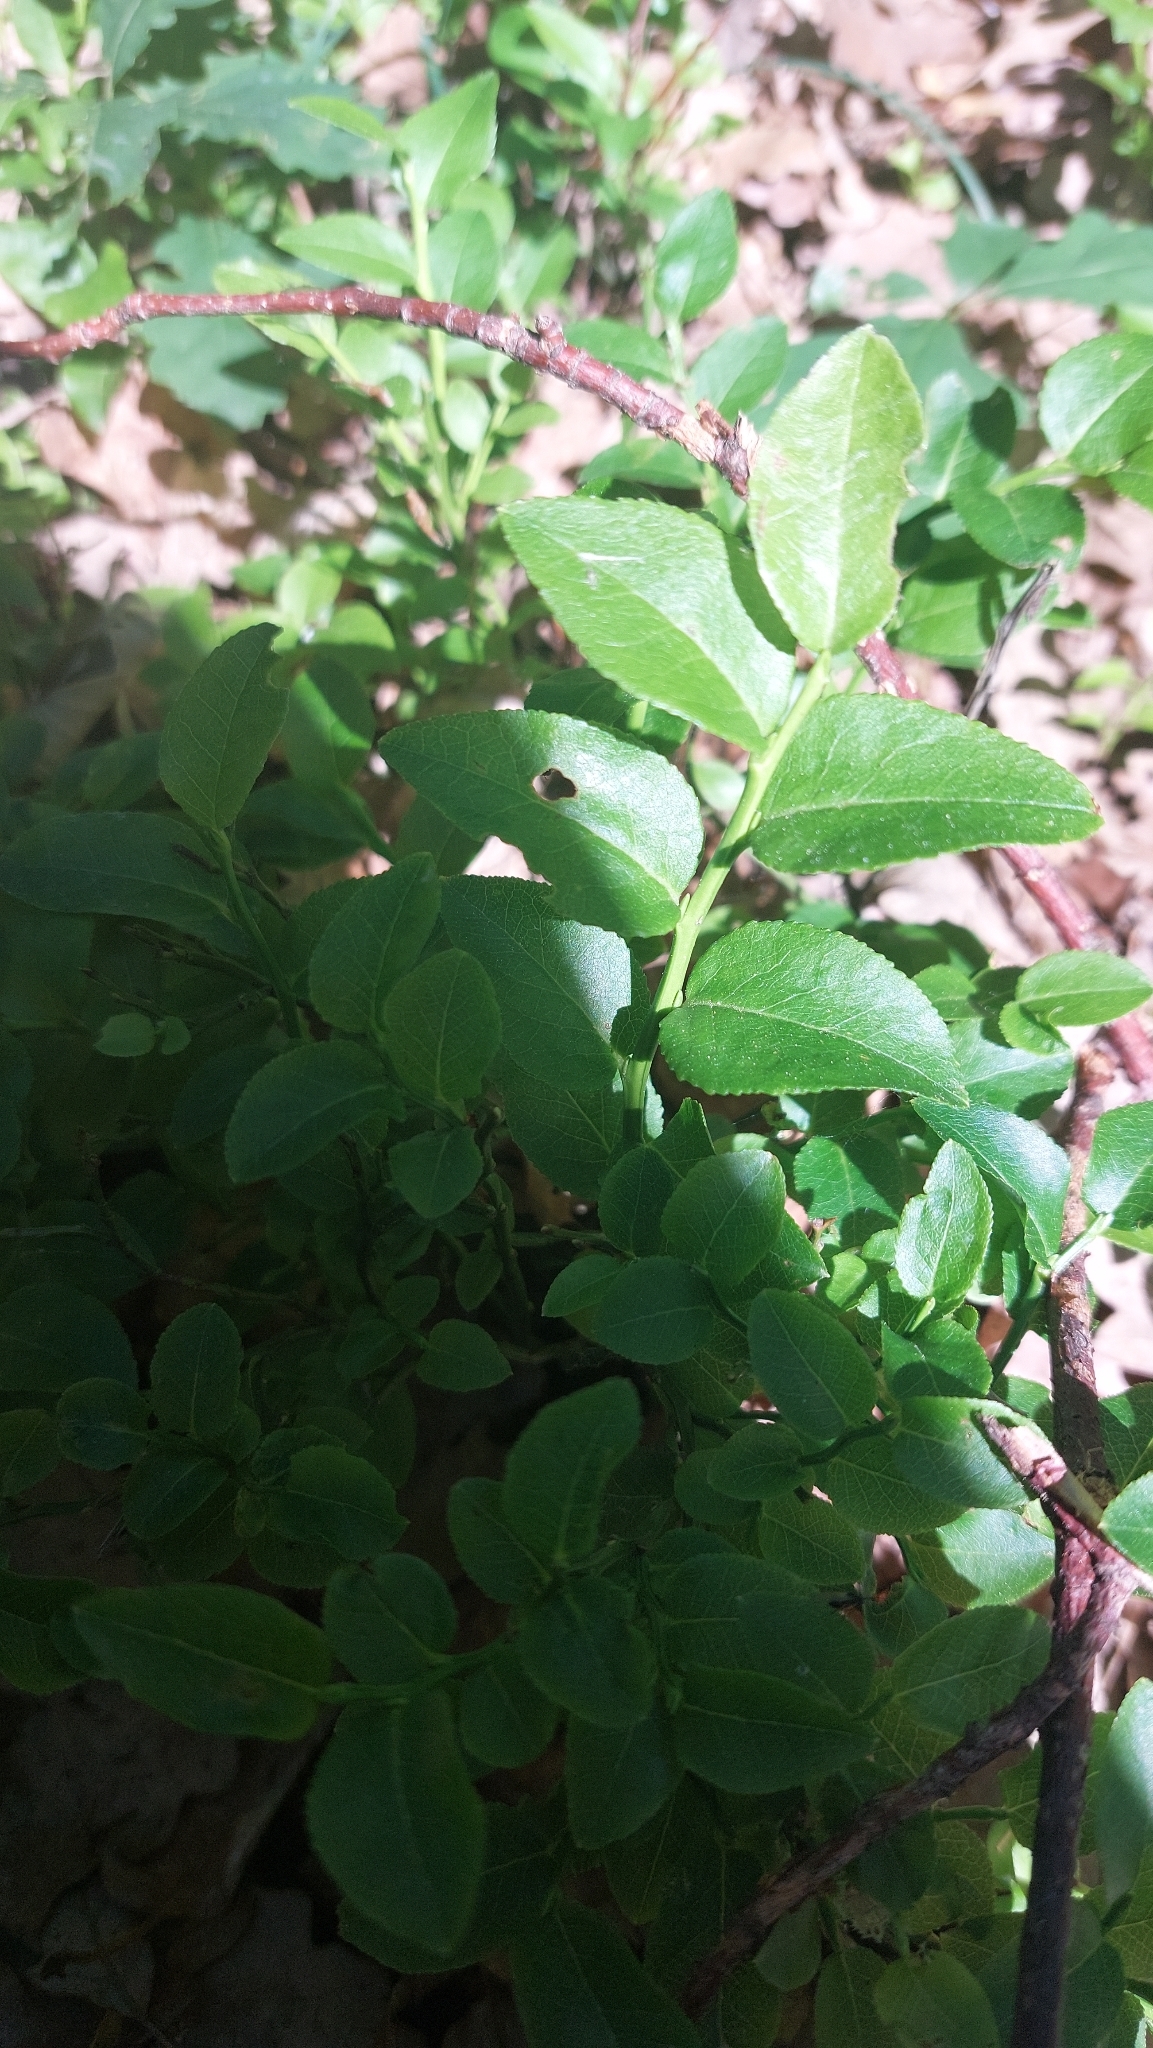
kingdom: Plantae
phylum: Tracheophyta
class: Magnoliopsida
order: Ericales
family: Ericaceae
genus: Vaccinium
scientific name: Vaccinium myrtillus
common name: Bilberry
